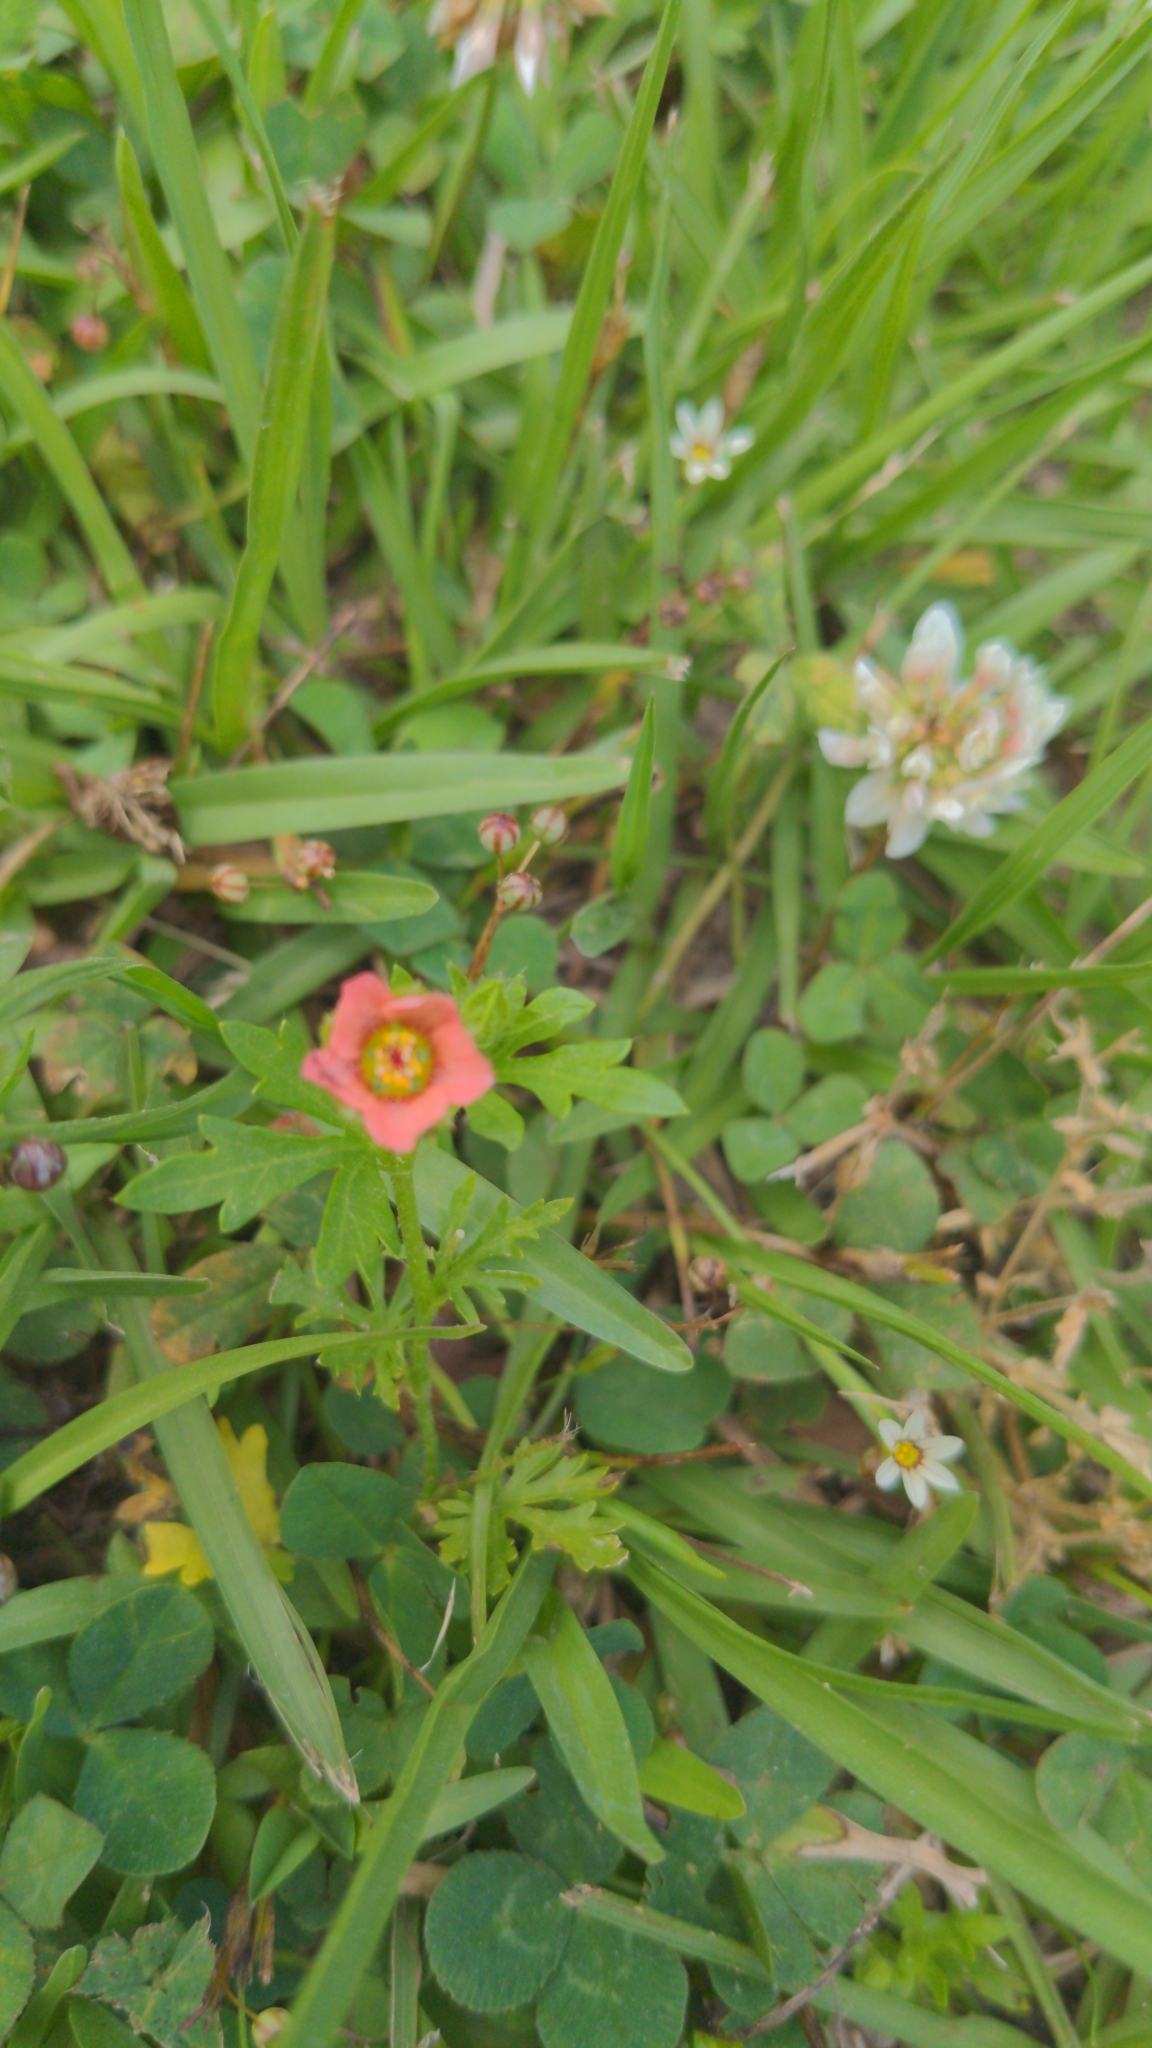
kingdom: Plantae
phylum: Tracheophyta
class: Magnoliopsida
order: Malvales
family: Malvaceae
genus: Modiola
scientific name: Modiola caroliniana
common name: Carolina bristlemallow
